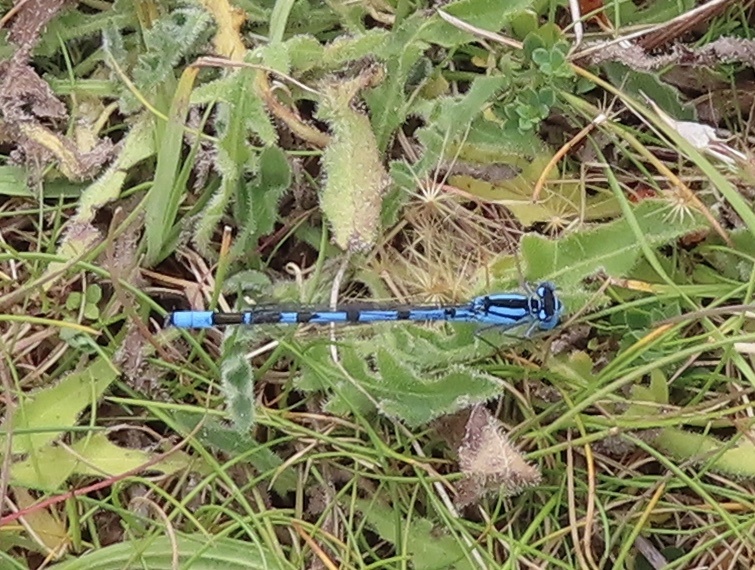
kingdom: Animalia
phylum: Arthropoda
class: Insecta
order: Odonata
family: Coenagrionidae
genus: Enallagma
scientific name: Enallagma cyathigerum
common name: Common blue damselfly
